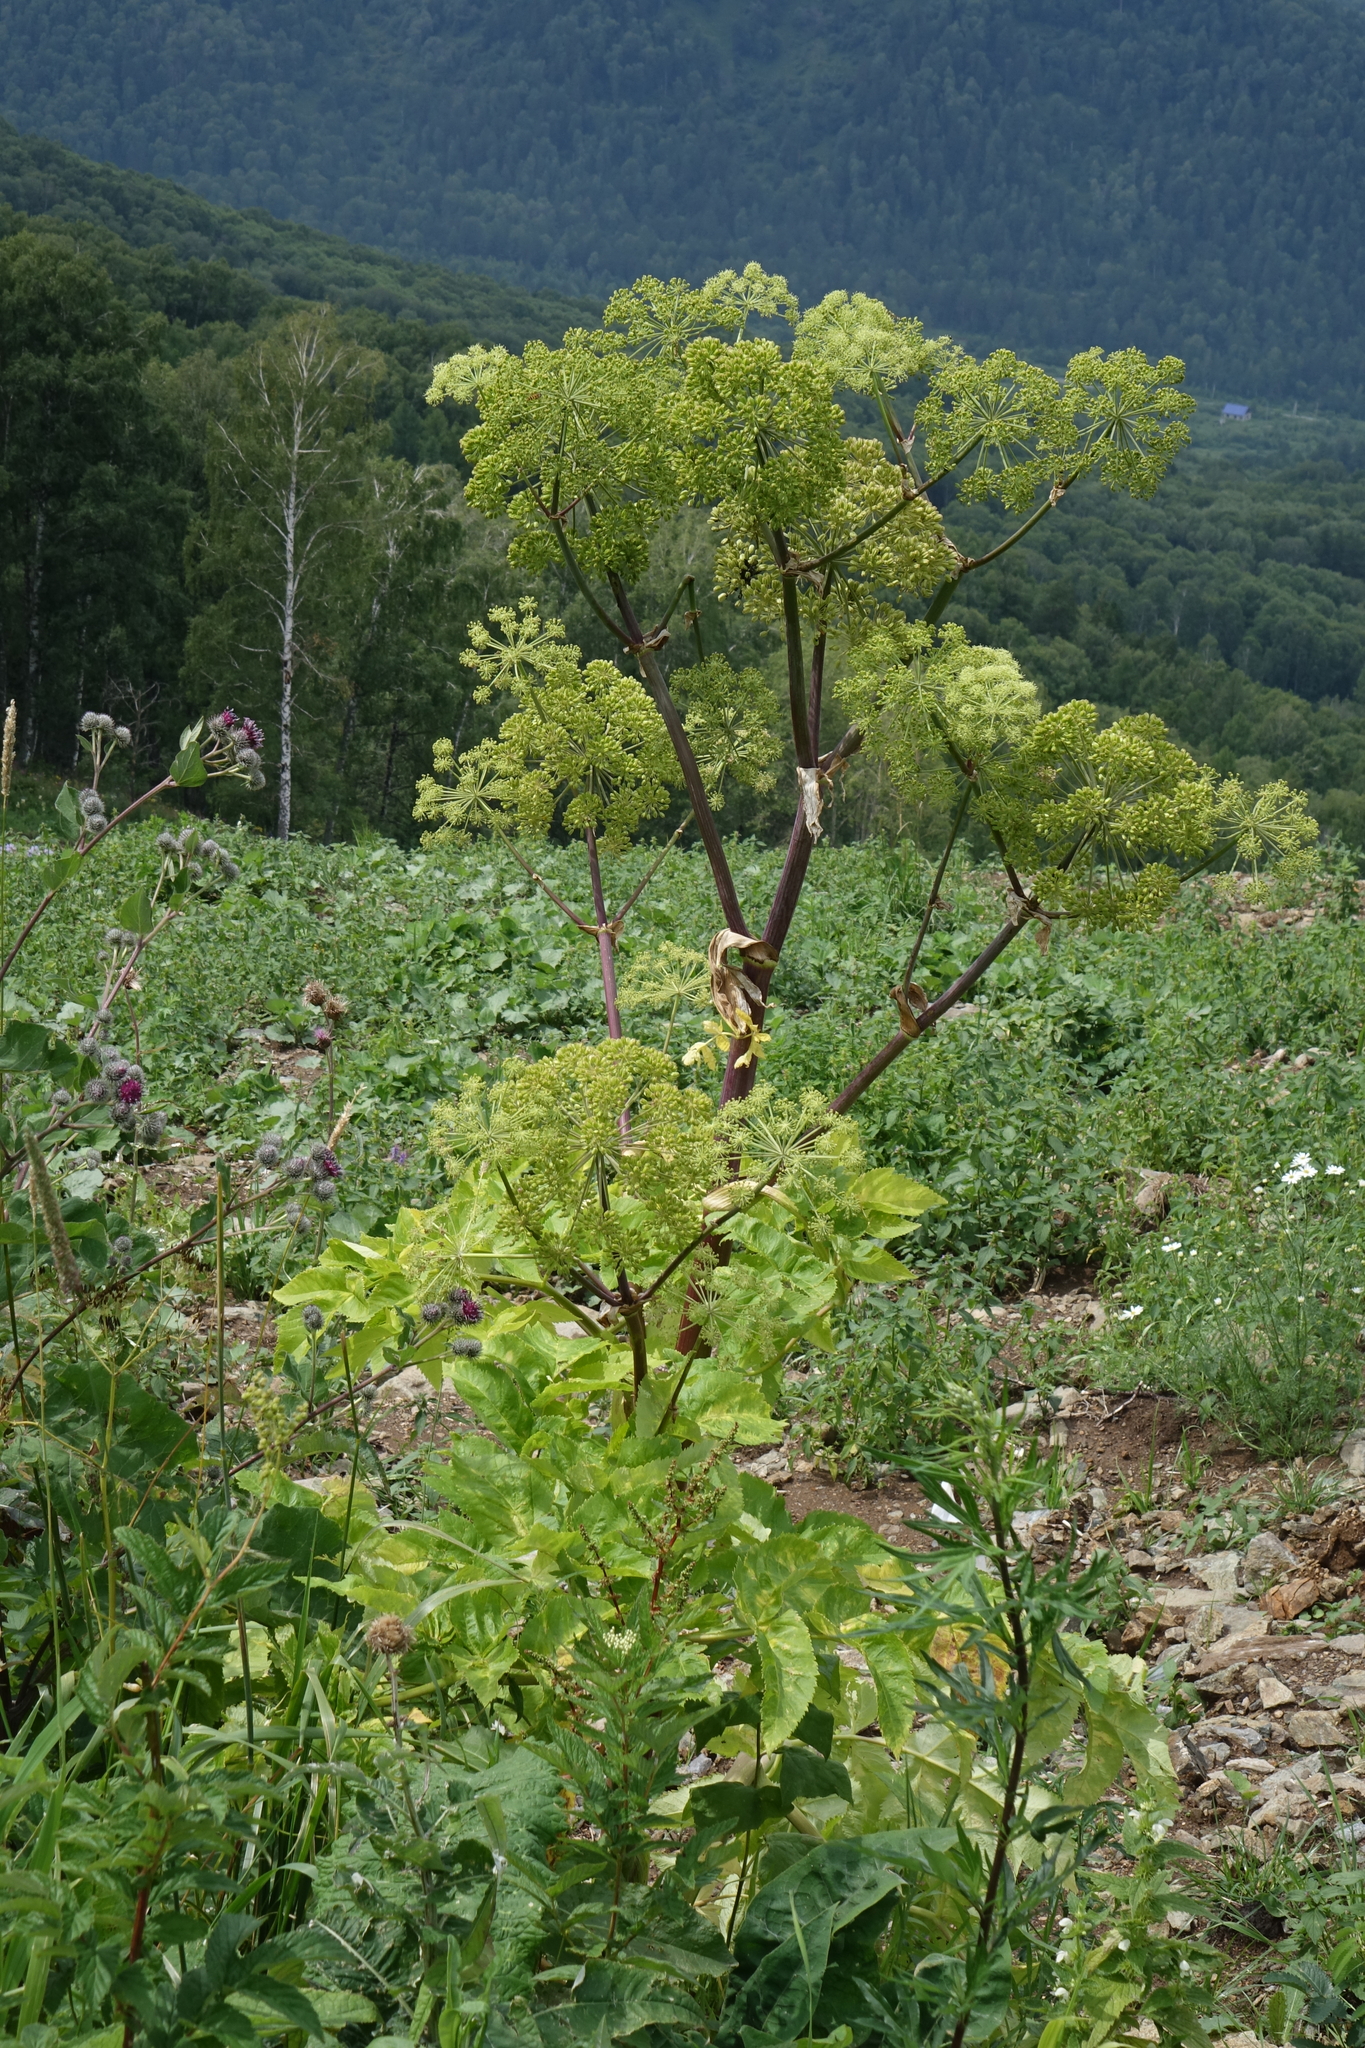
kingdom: Plantae
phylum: Tracheophyta
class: Magnoliopsida
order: Apiales
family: Apiaceae
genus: Angelica
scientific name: Angelica decurrens
